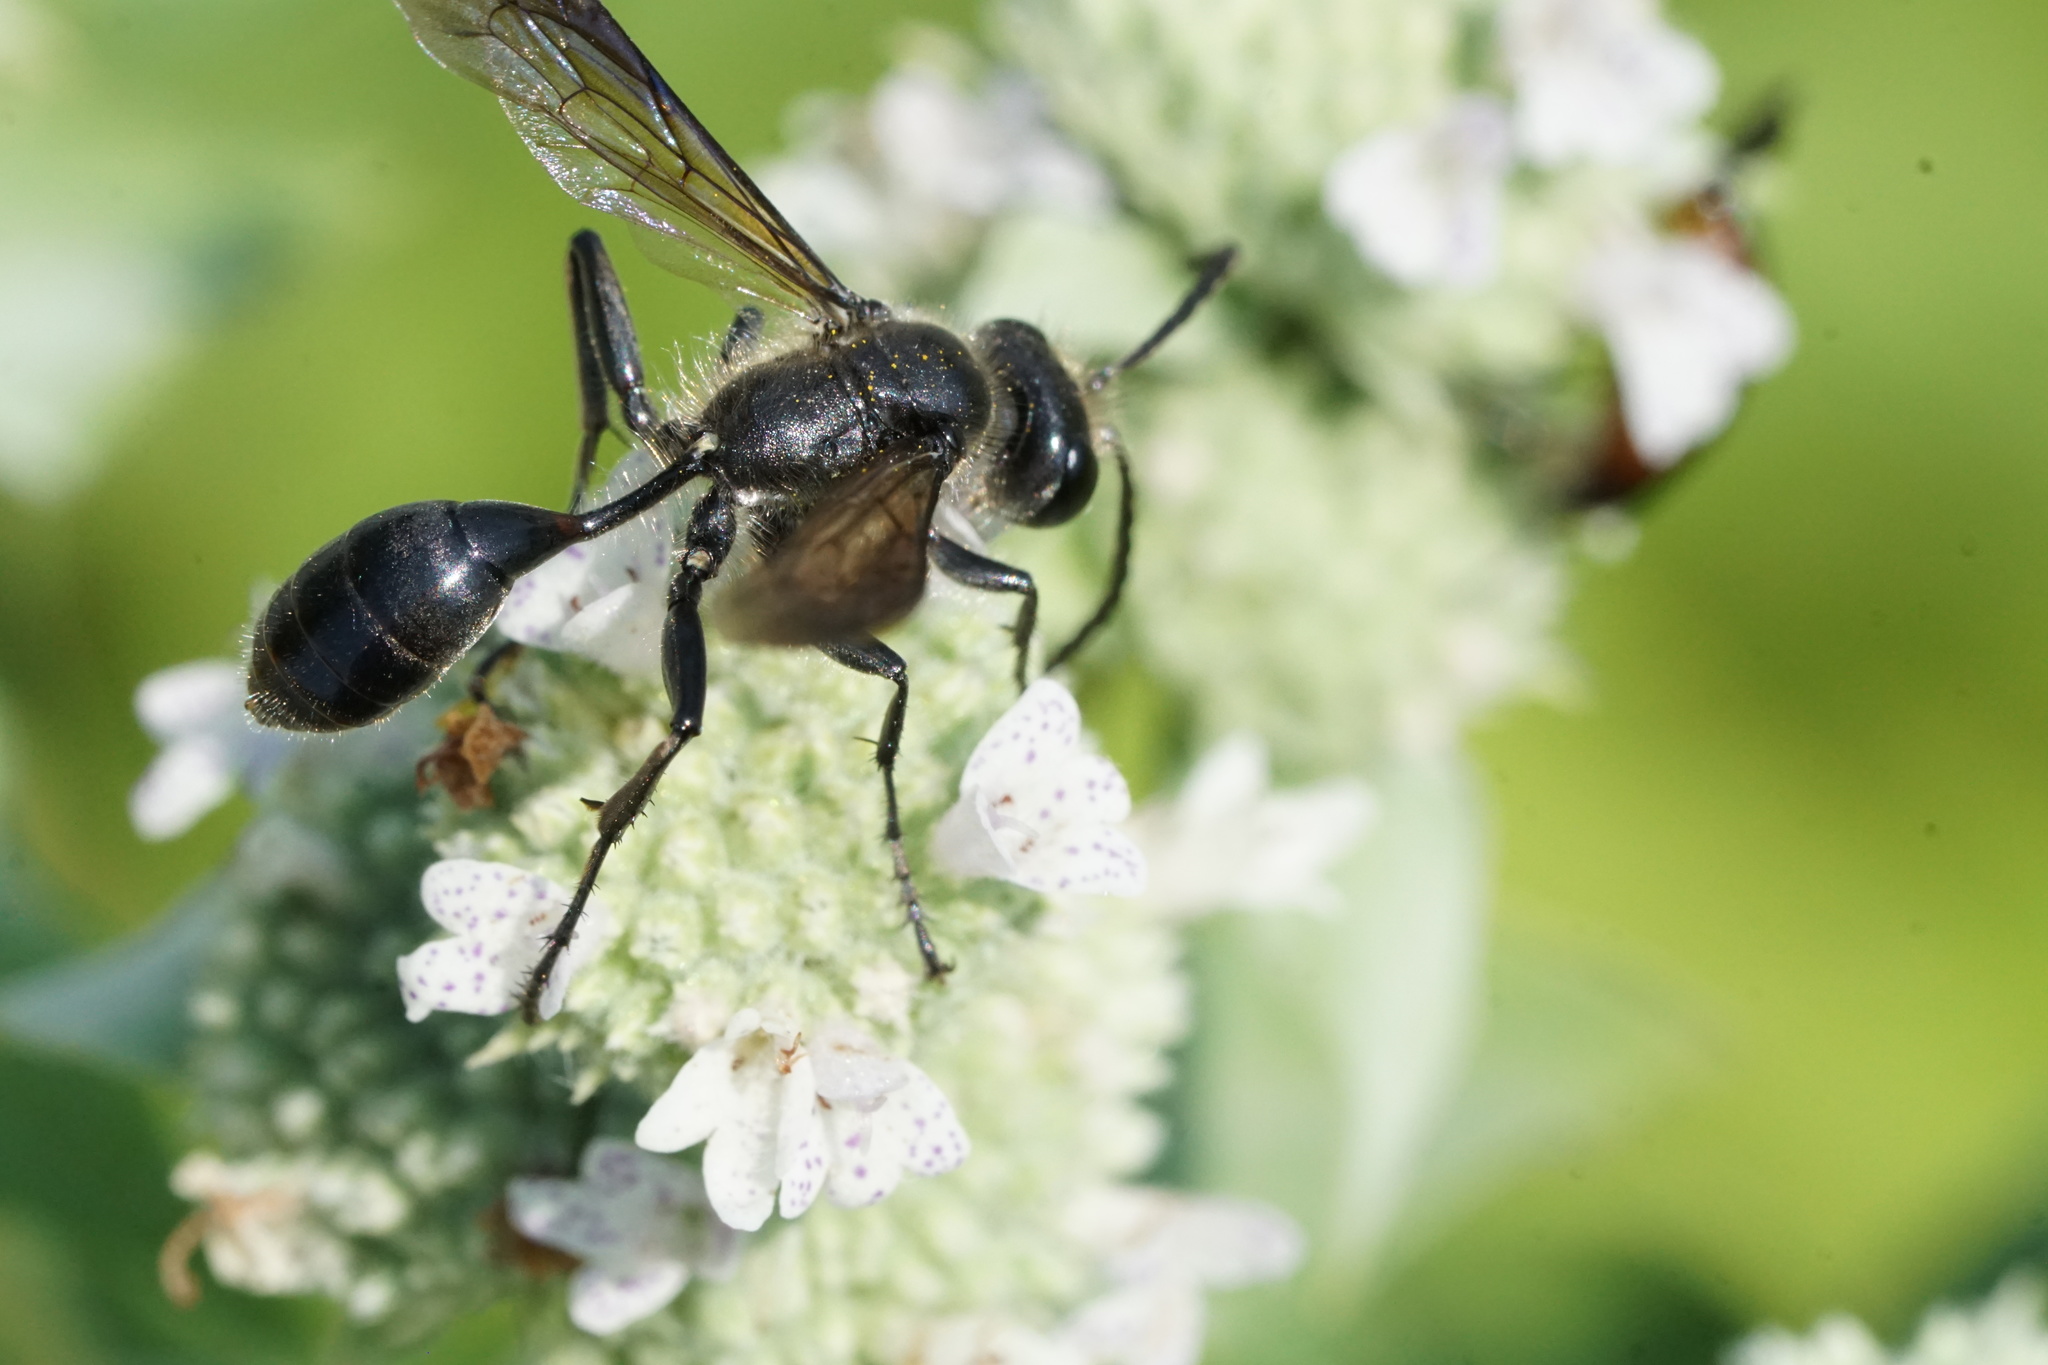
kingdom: Animalia
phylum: Arthropoda
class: Insecta
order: Hymenoptera
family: Sphecidae
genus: Isodontia
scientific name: Isodontia mexicana
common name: Mud dauber
